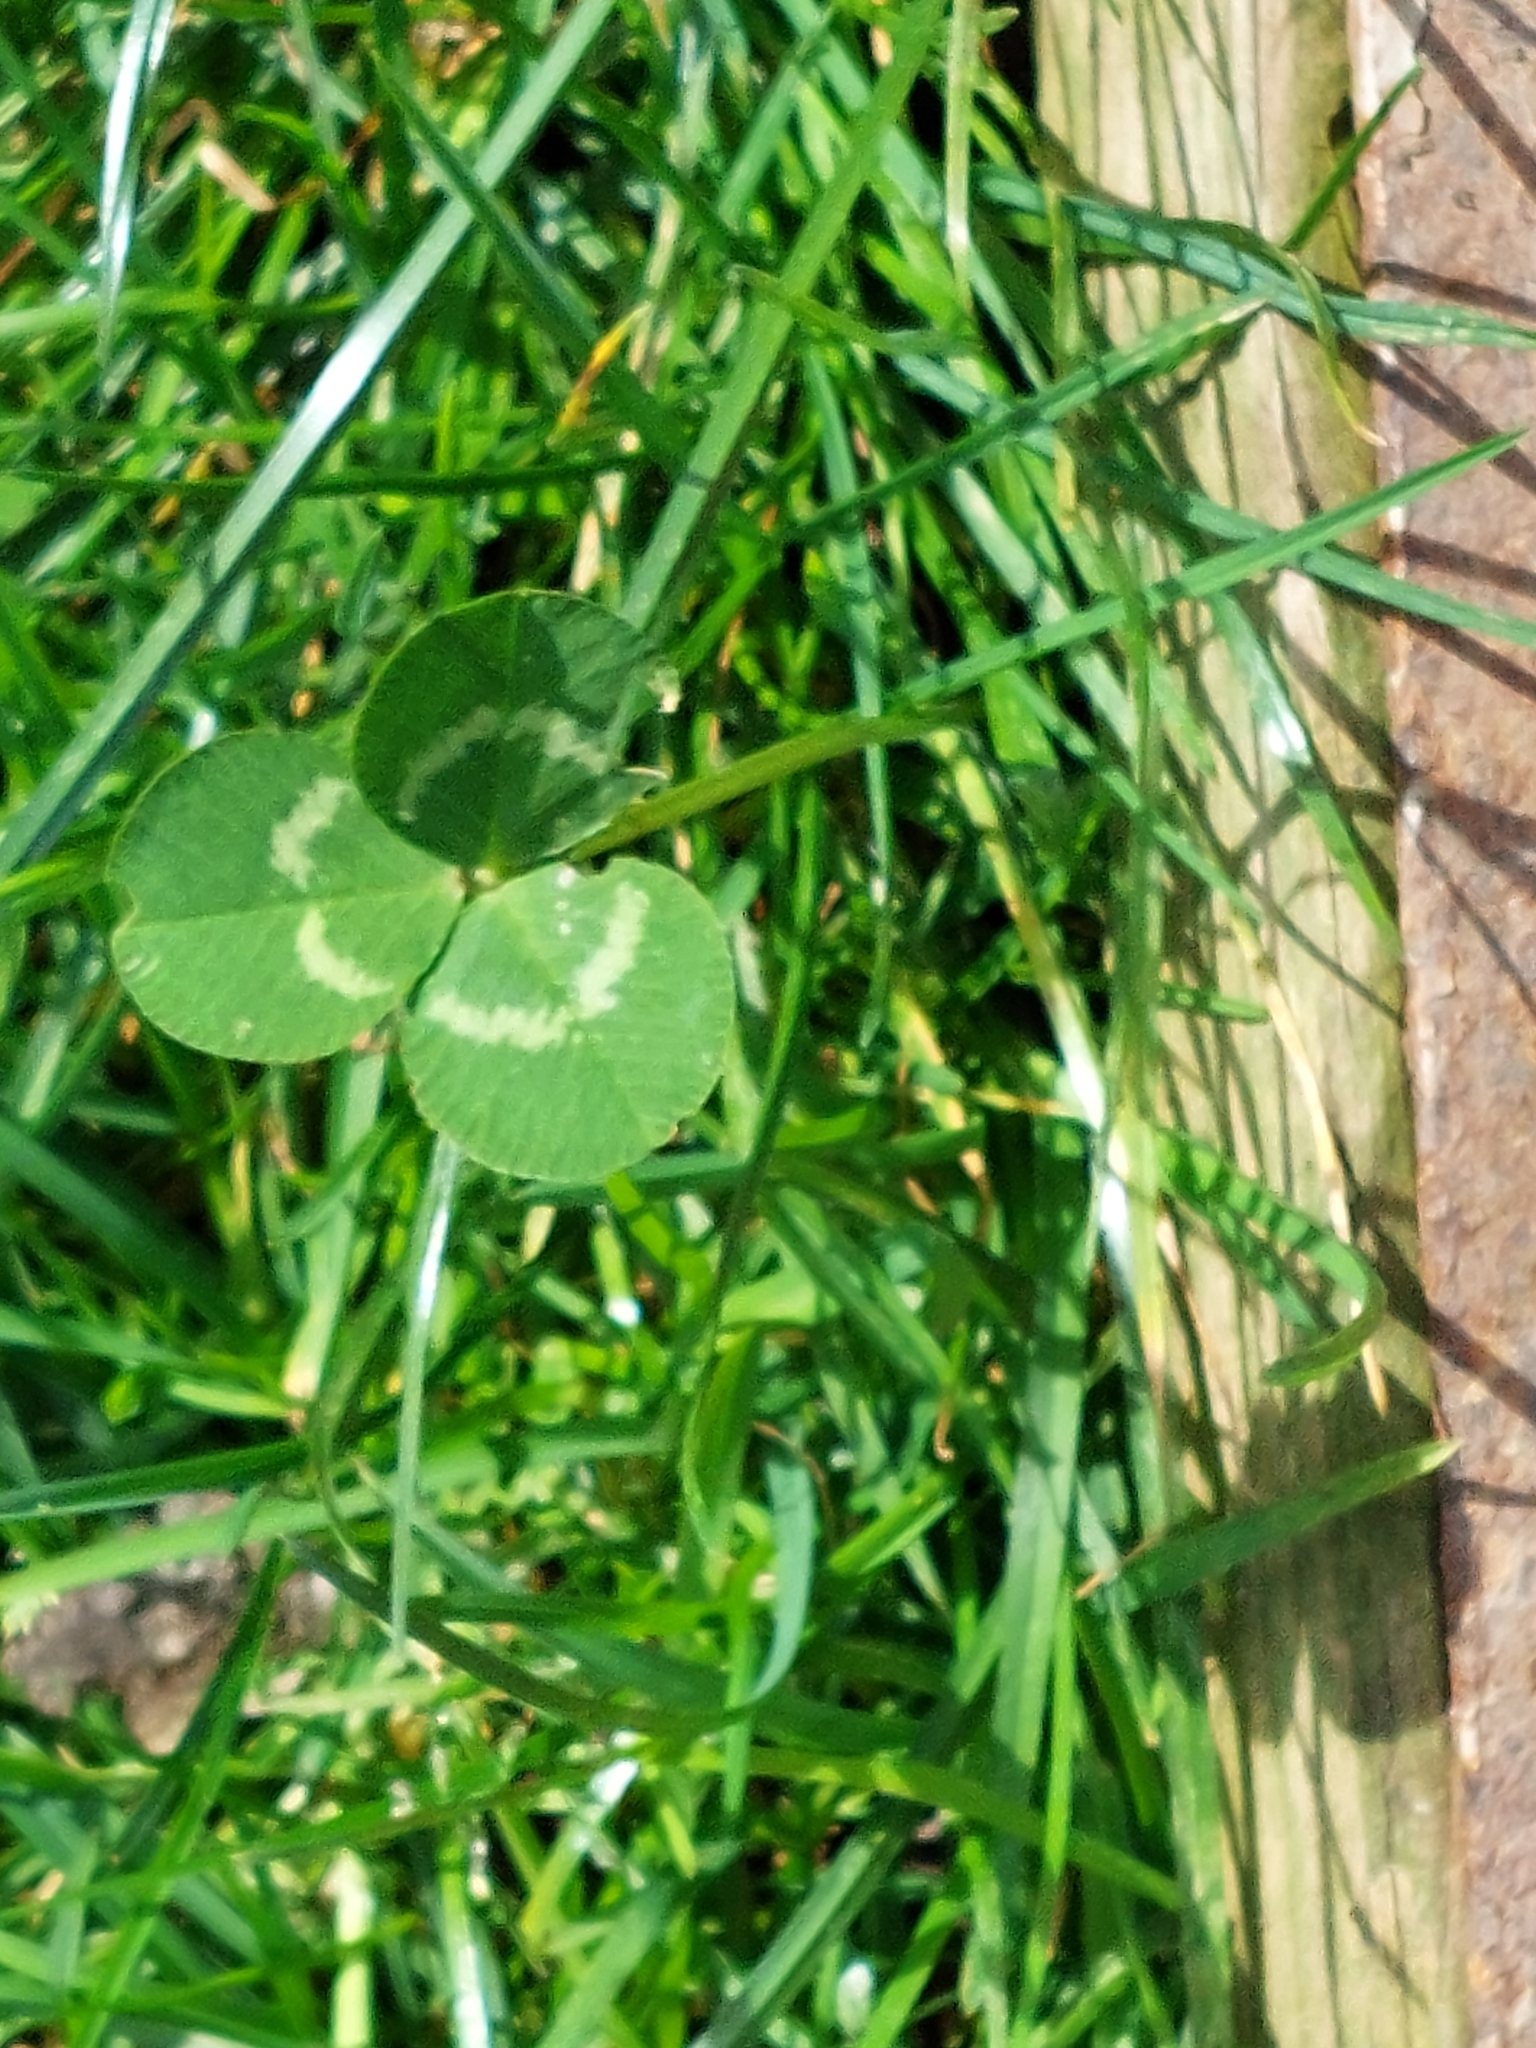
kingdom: Plantae
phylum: Tracheophyta
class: Magnoliopsida
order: Fabales
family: Fabaceae
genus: Trifolium
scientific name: Trifolium repens
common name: White clover
